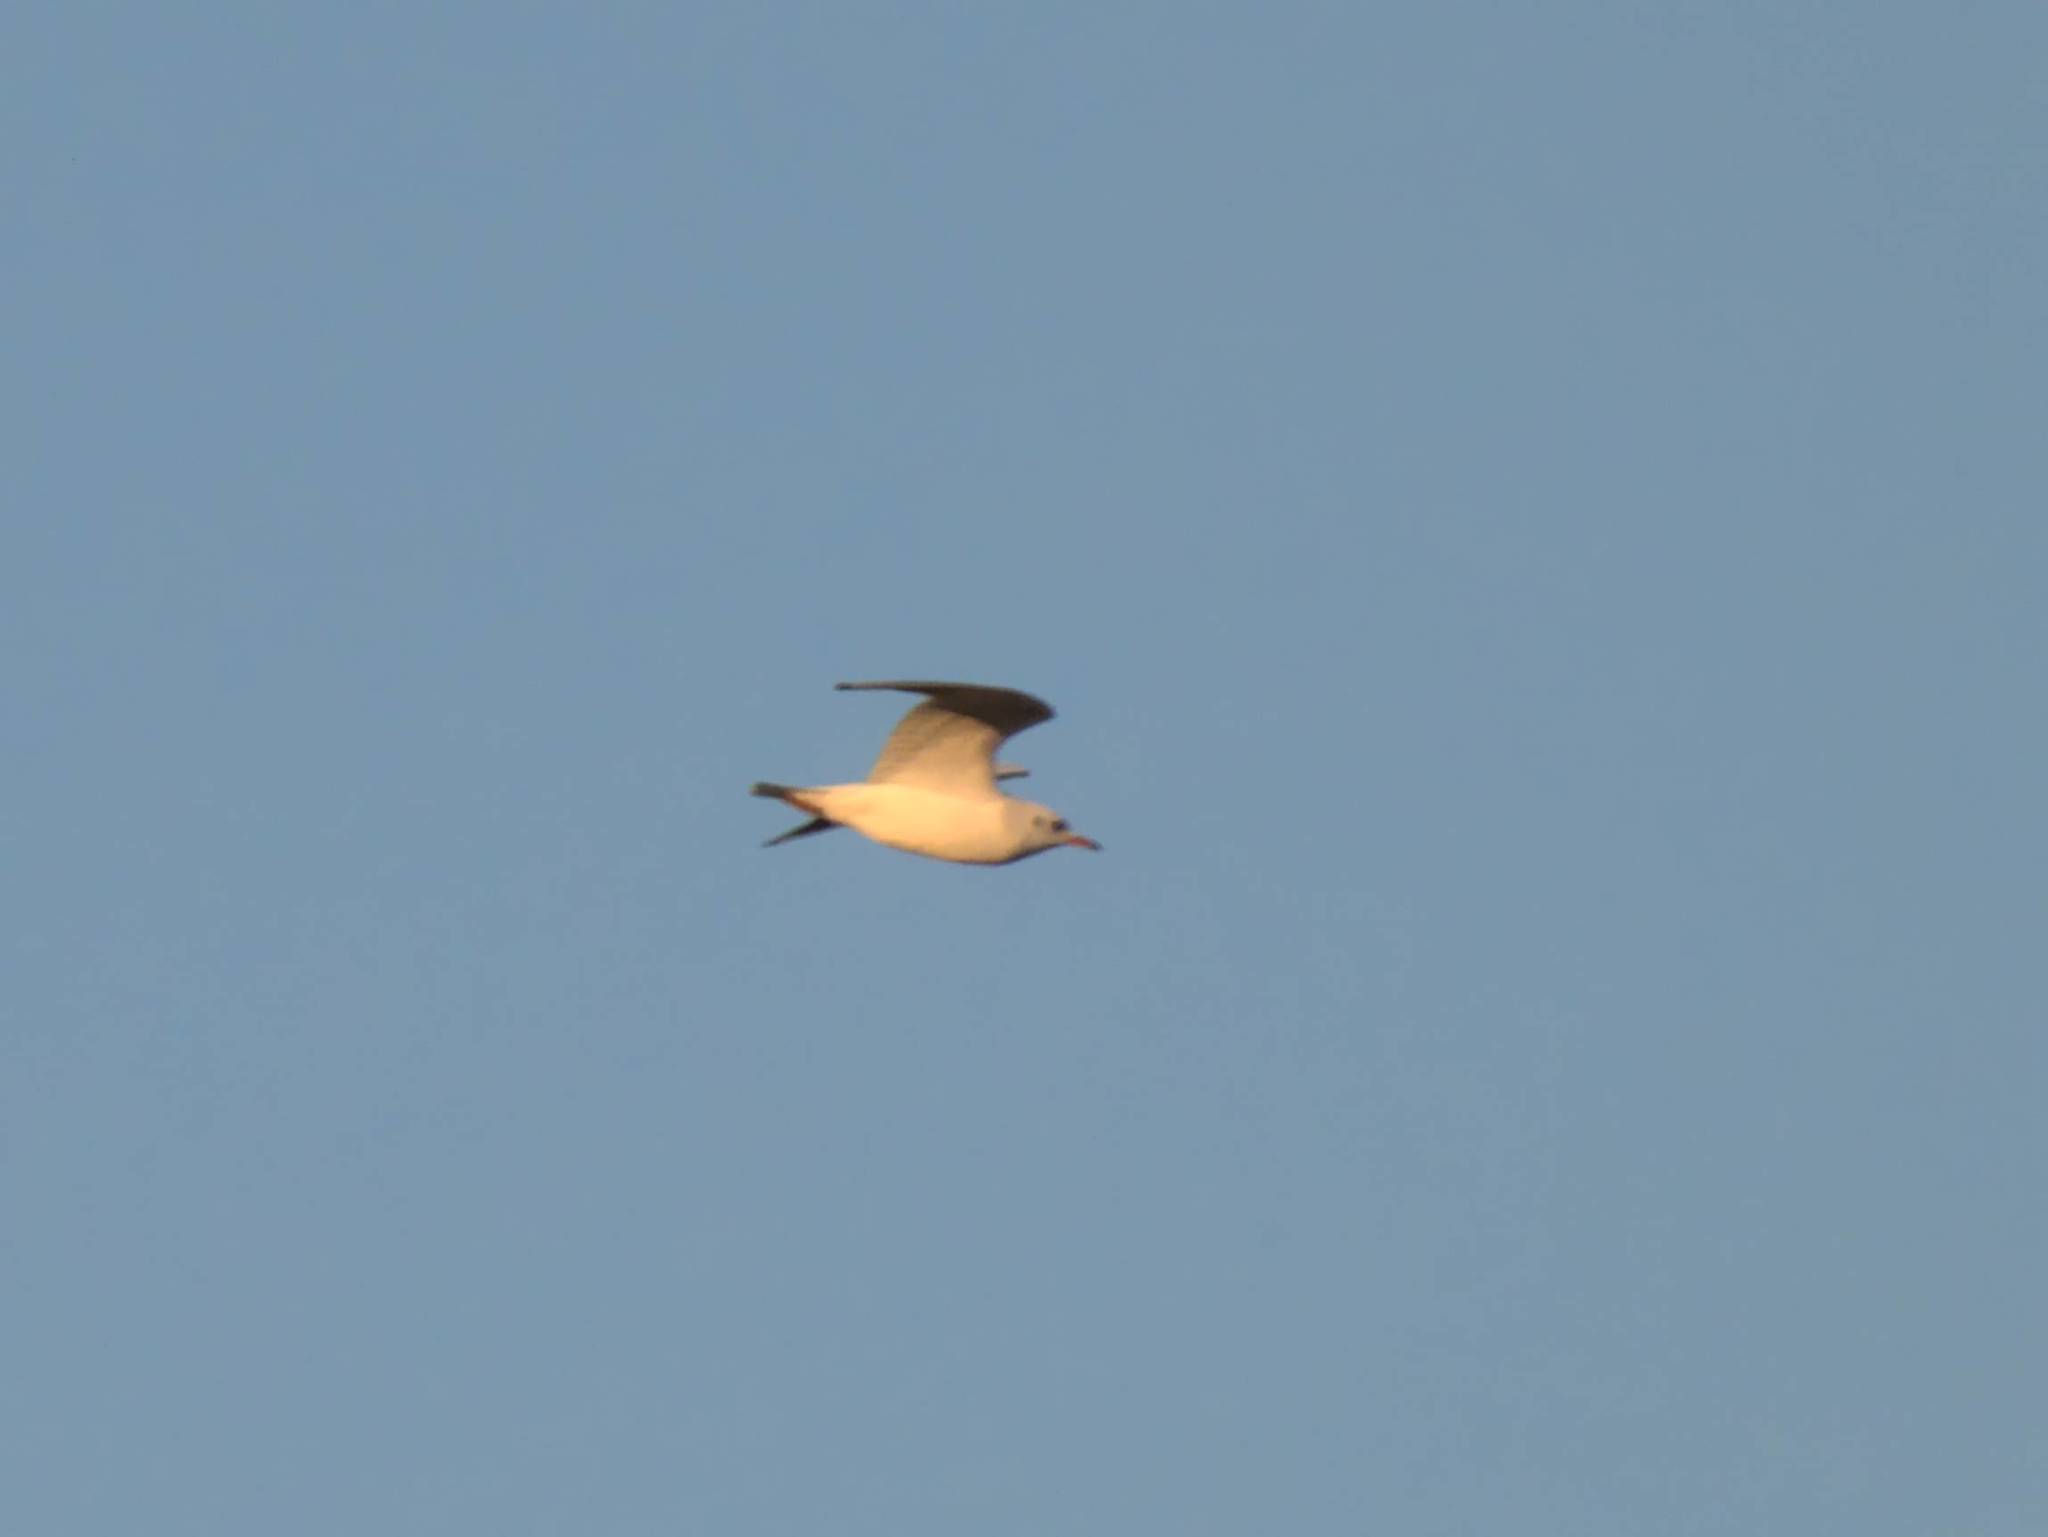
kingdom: Animalia
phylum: Chordata
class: Aves
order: Charadriiformes
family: Laridae
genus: Chroicocephalus
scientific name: Chroicocephalus ridibundus
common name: Black-headed gull
